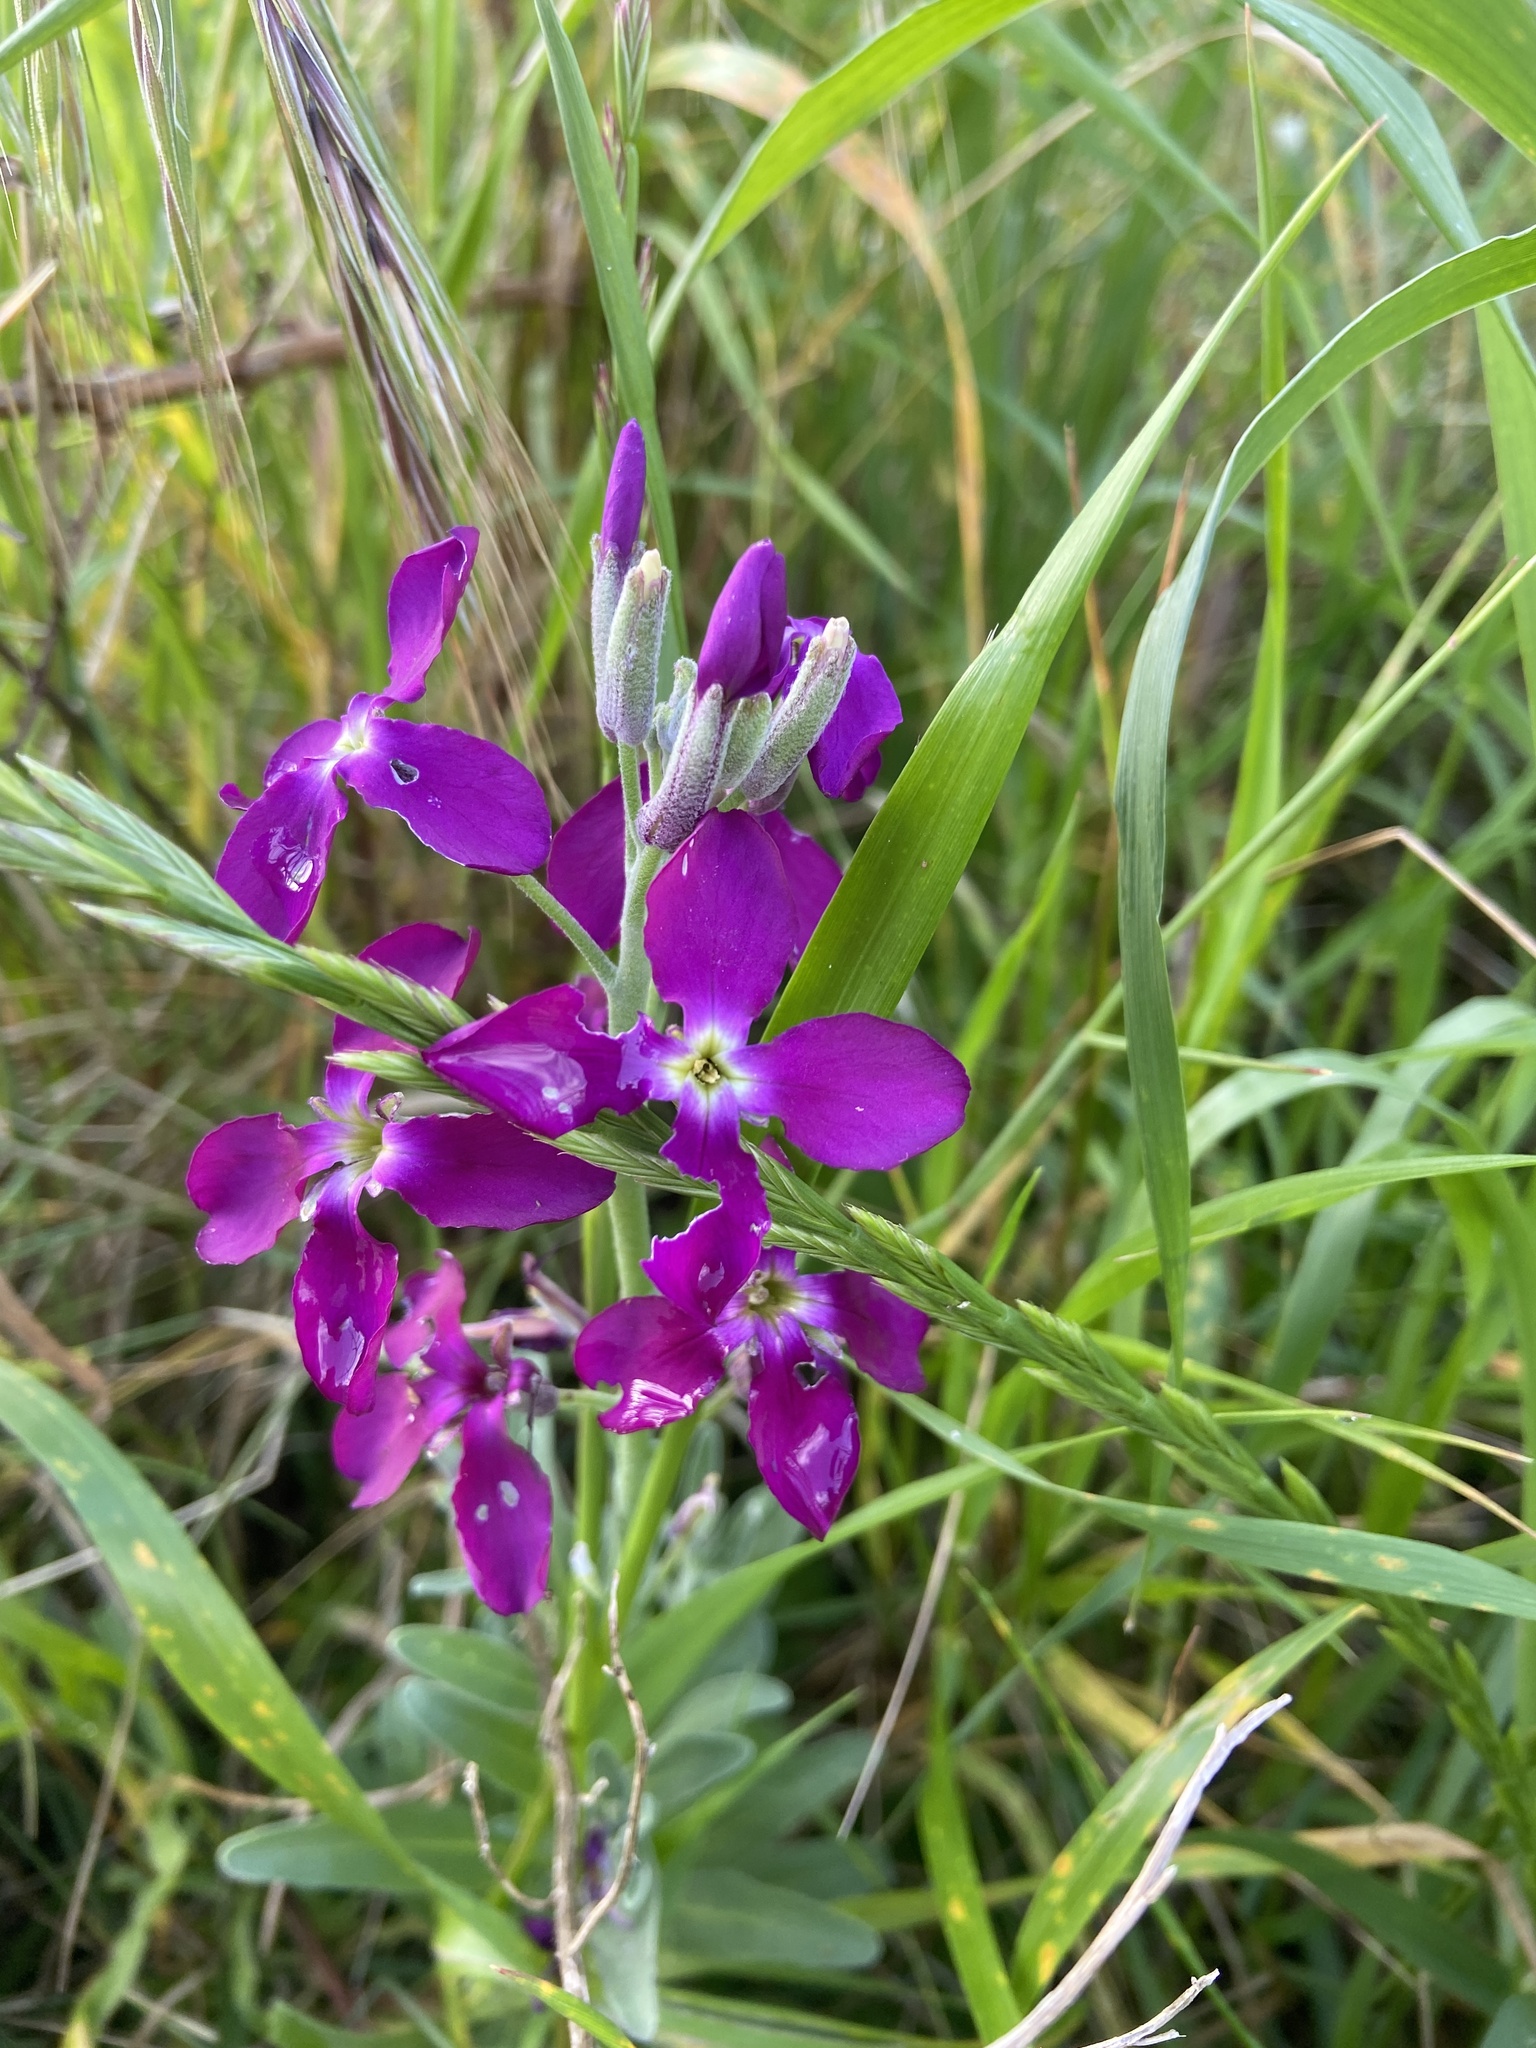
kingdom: Plantae
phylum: Tracheophyta
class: Magnoliopsida
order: Brassicales
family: Brassicaceae
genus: Matthiola
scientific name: Matthiola incana
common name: Hoary stock
